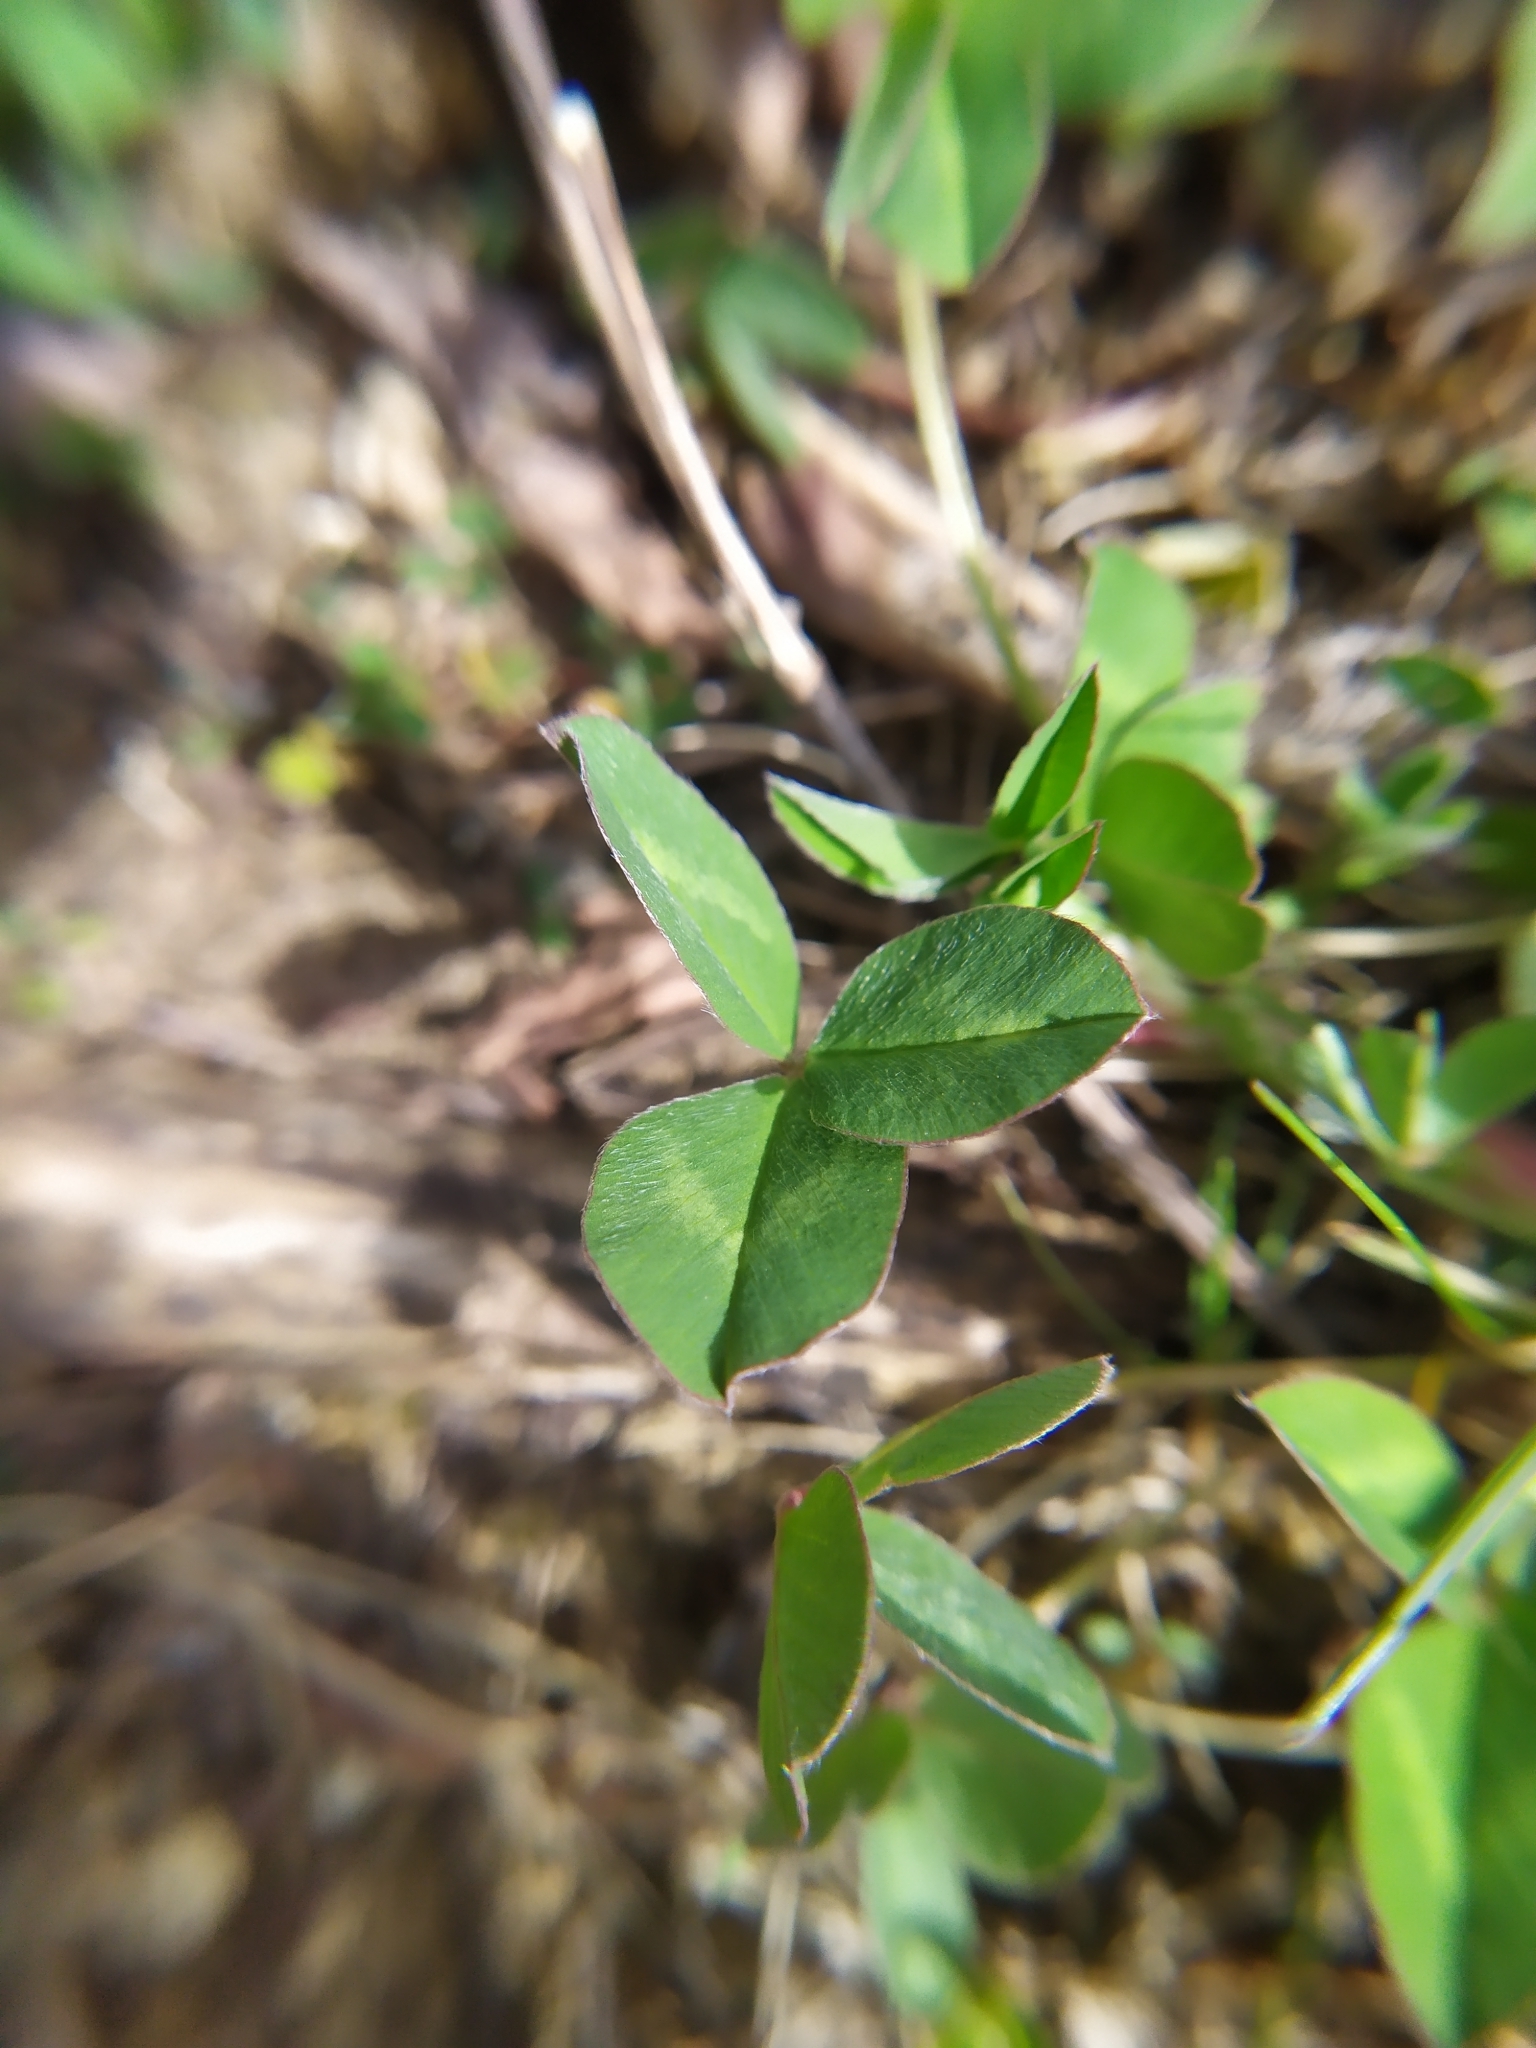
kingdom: Plantae
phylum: Tracheophyta
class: Magnoliopsida
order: Fabales
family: Fabaceae
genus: Trifolium
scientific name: Trifolium pratense
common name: Red clover
